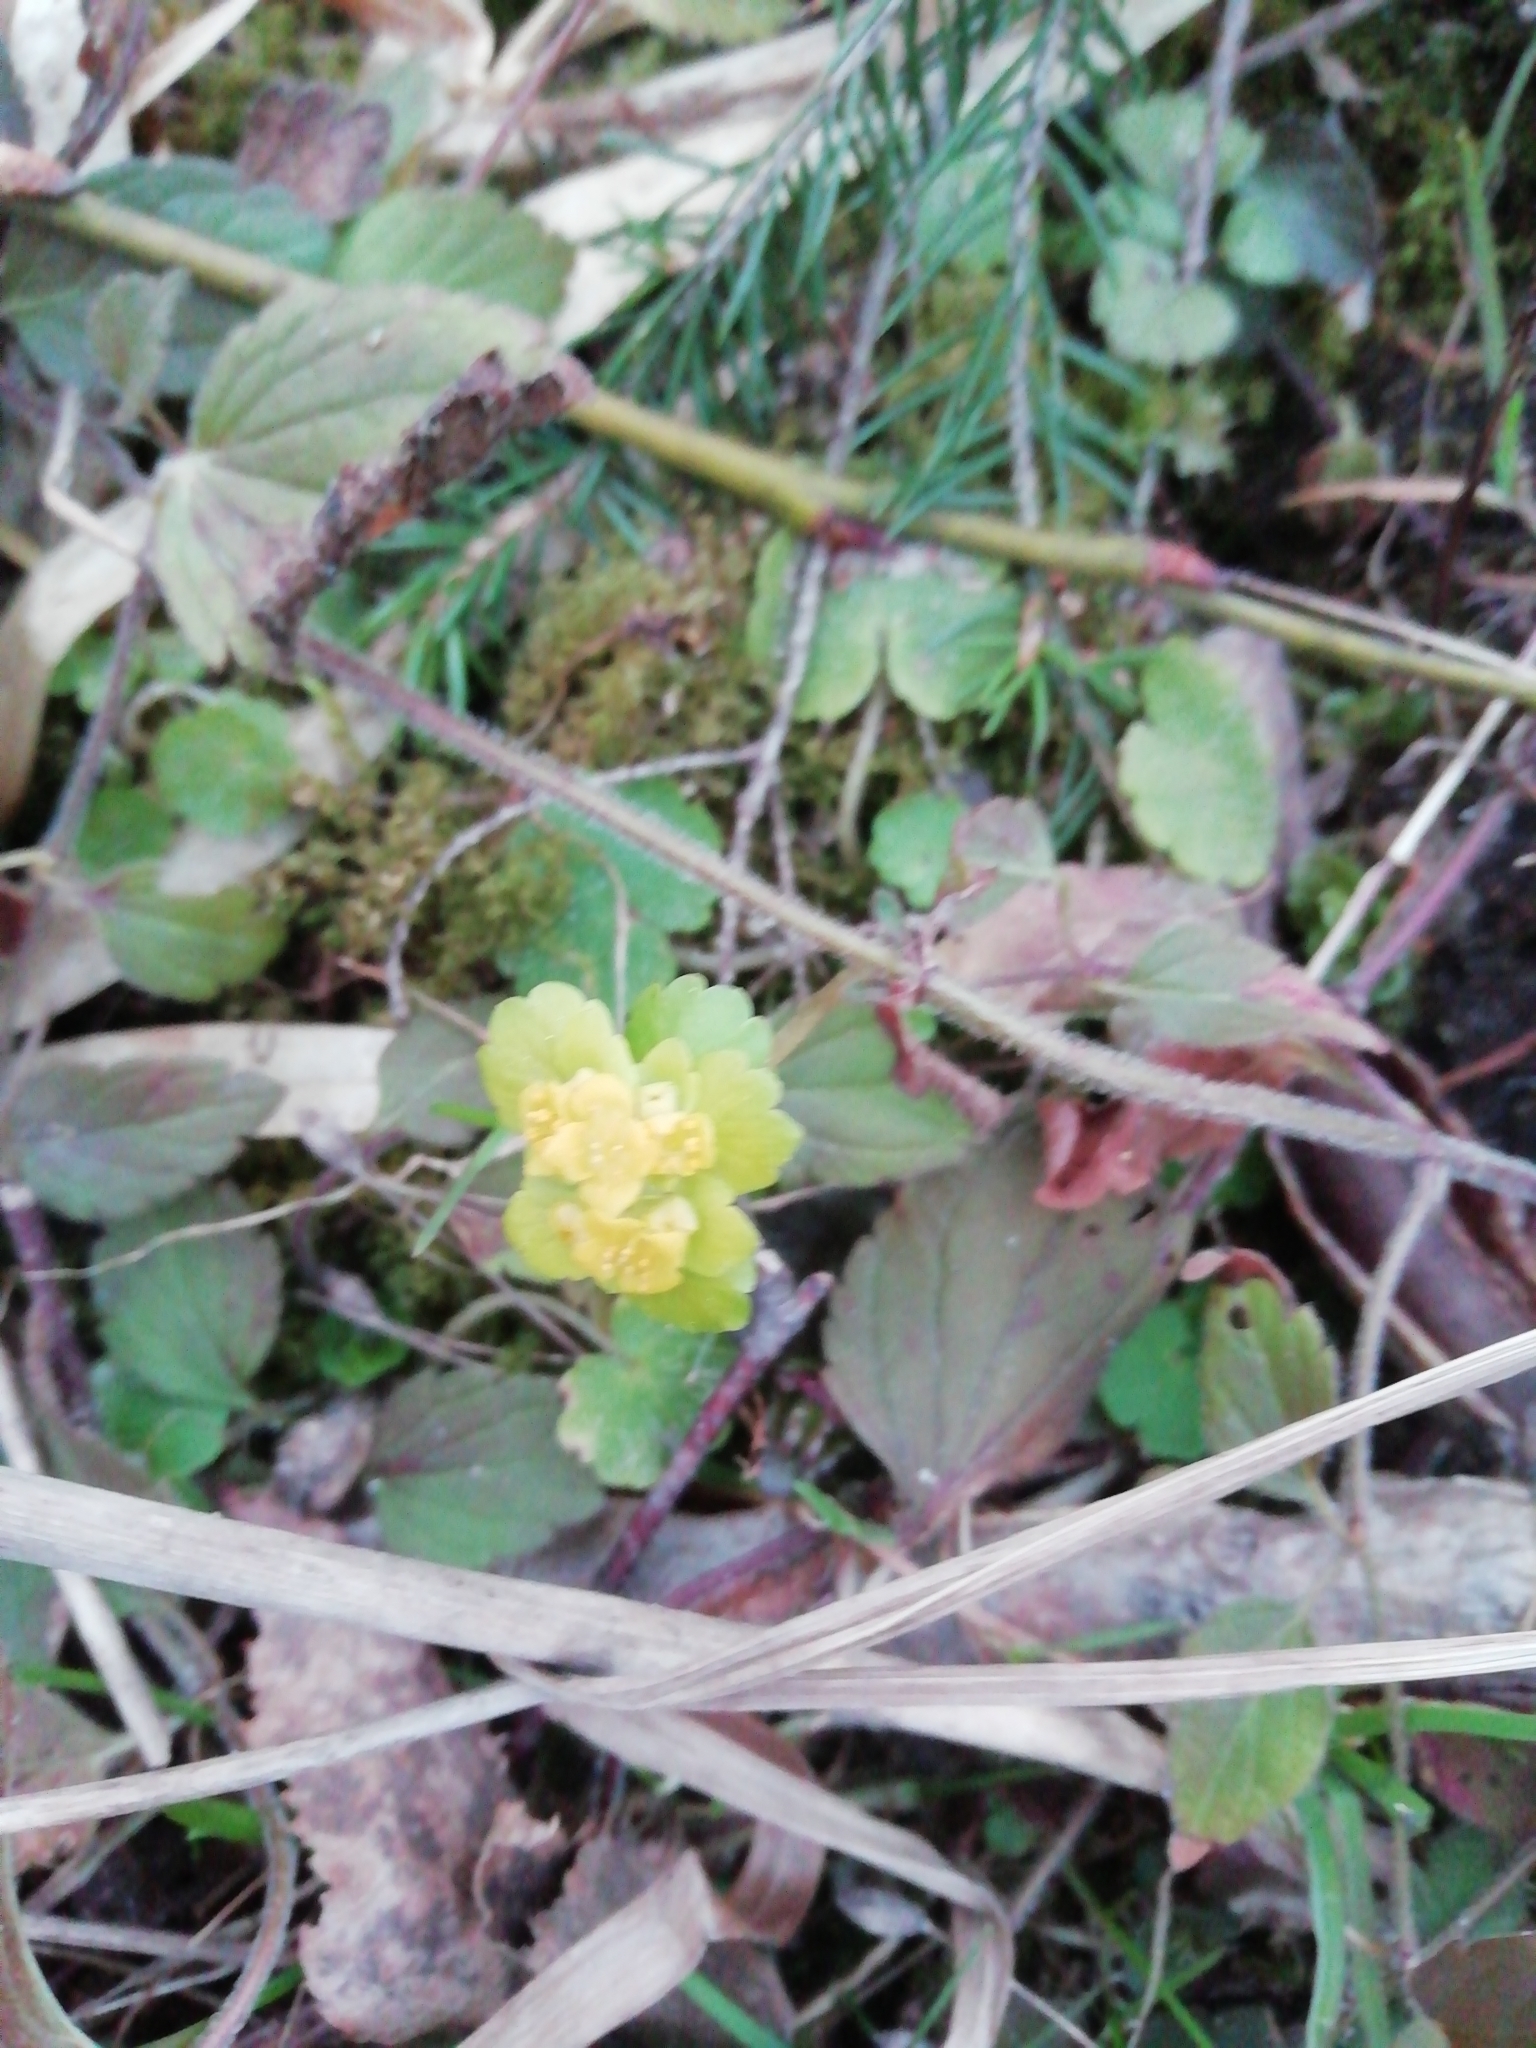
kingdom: Plantae
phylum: Tracheophyta
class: Magnoliopsida
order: Saxifragales
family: Saxifragaceae
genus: Chrysosplenium
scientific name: Chrysosplenium alternifolium
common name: Alternate-leaved golden-saxifrage
